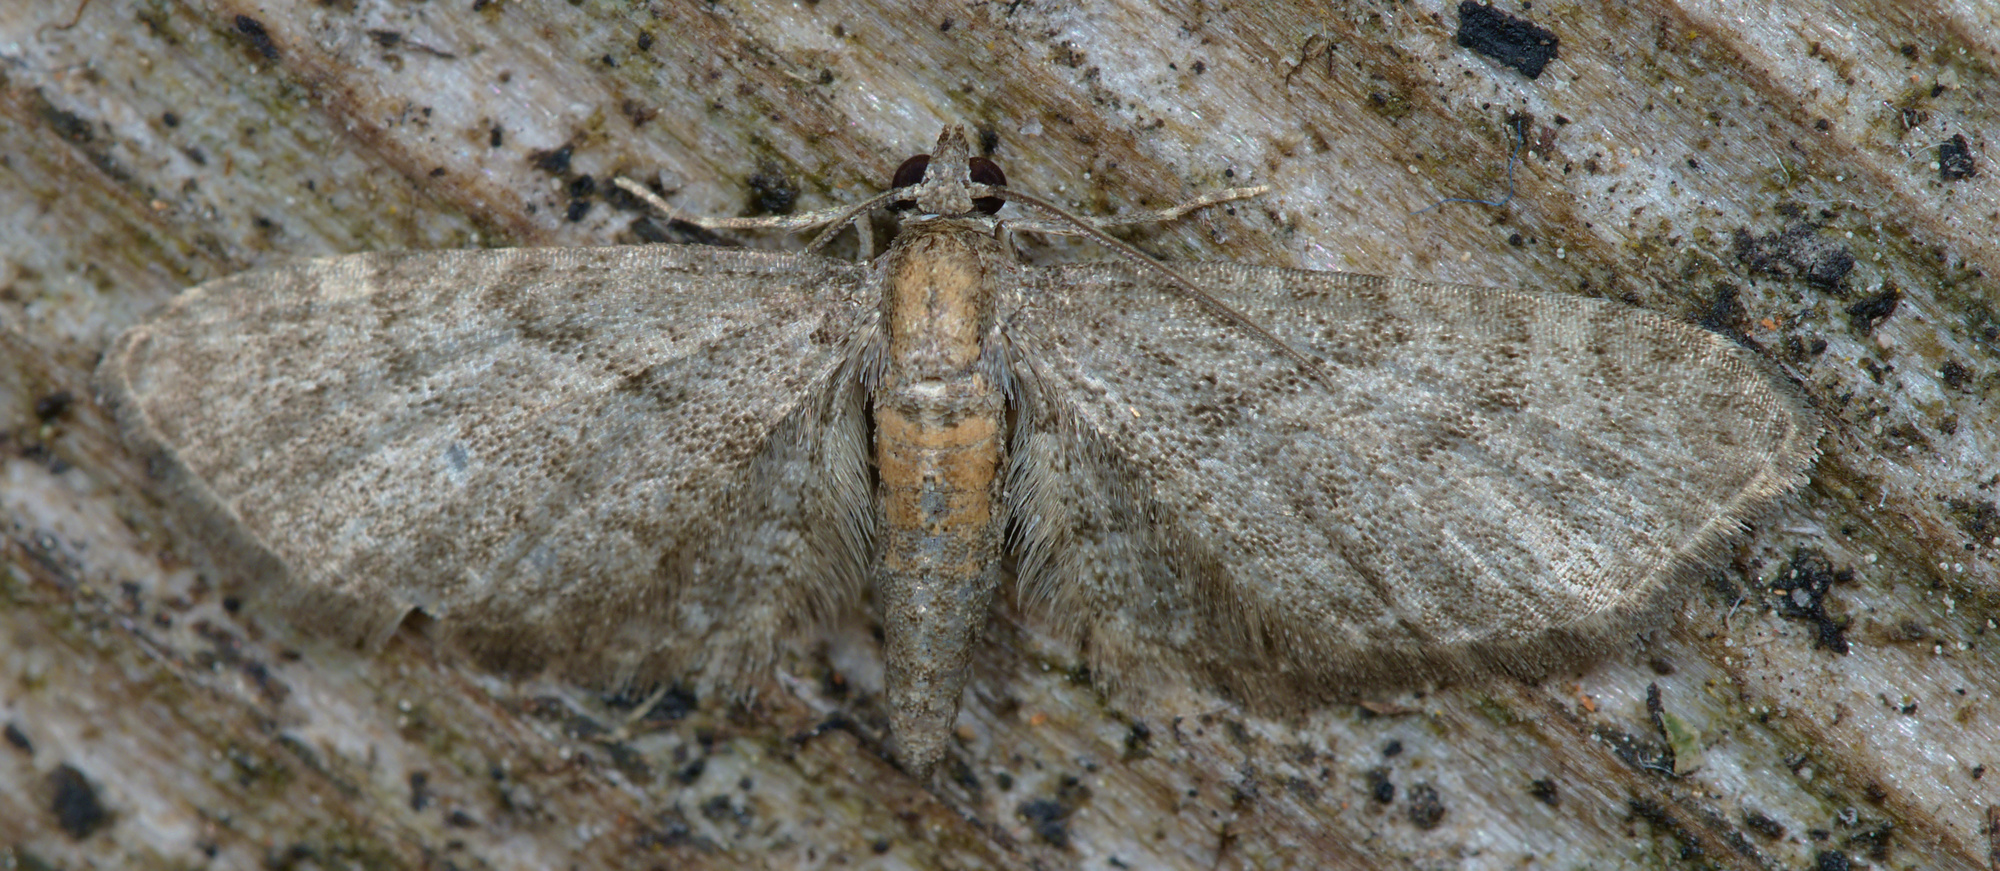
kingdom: Animalia
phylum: Arthropoda
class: Insecta
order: Lepidoptera
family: Geometridae
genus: Eupithecia
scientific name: Eupithecia haworthiata
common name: Haworth's pug
